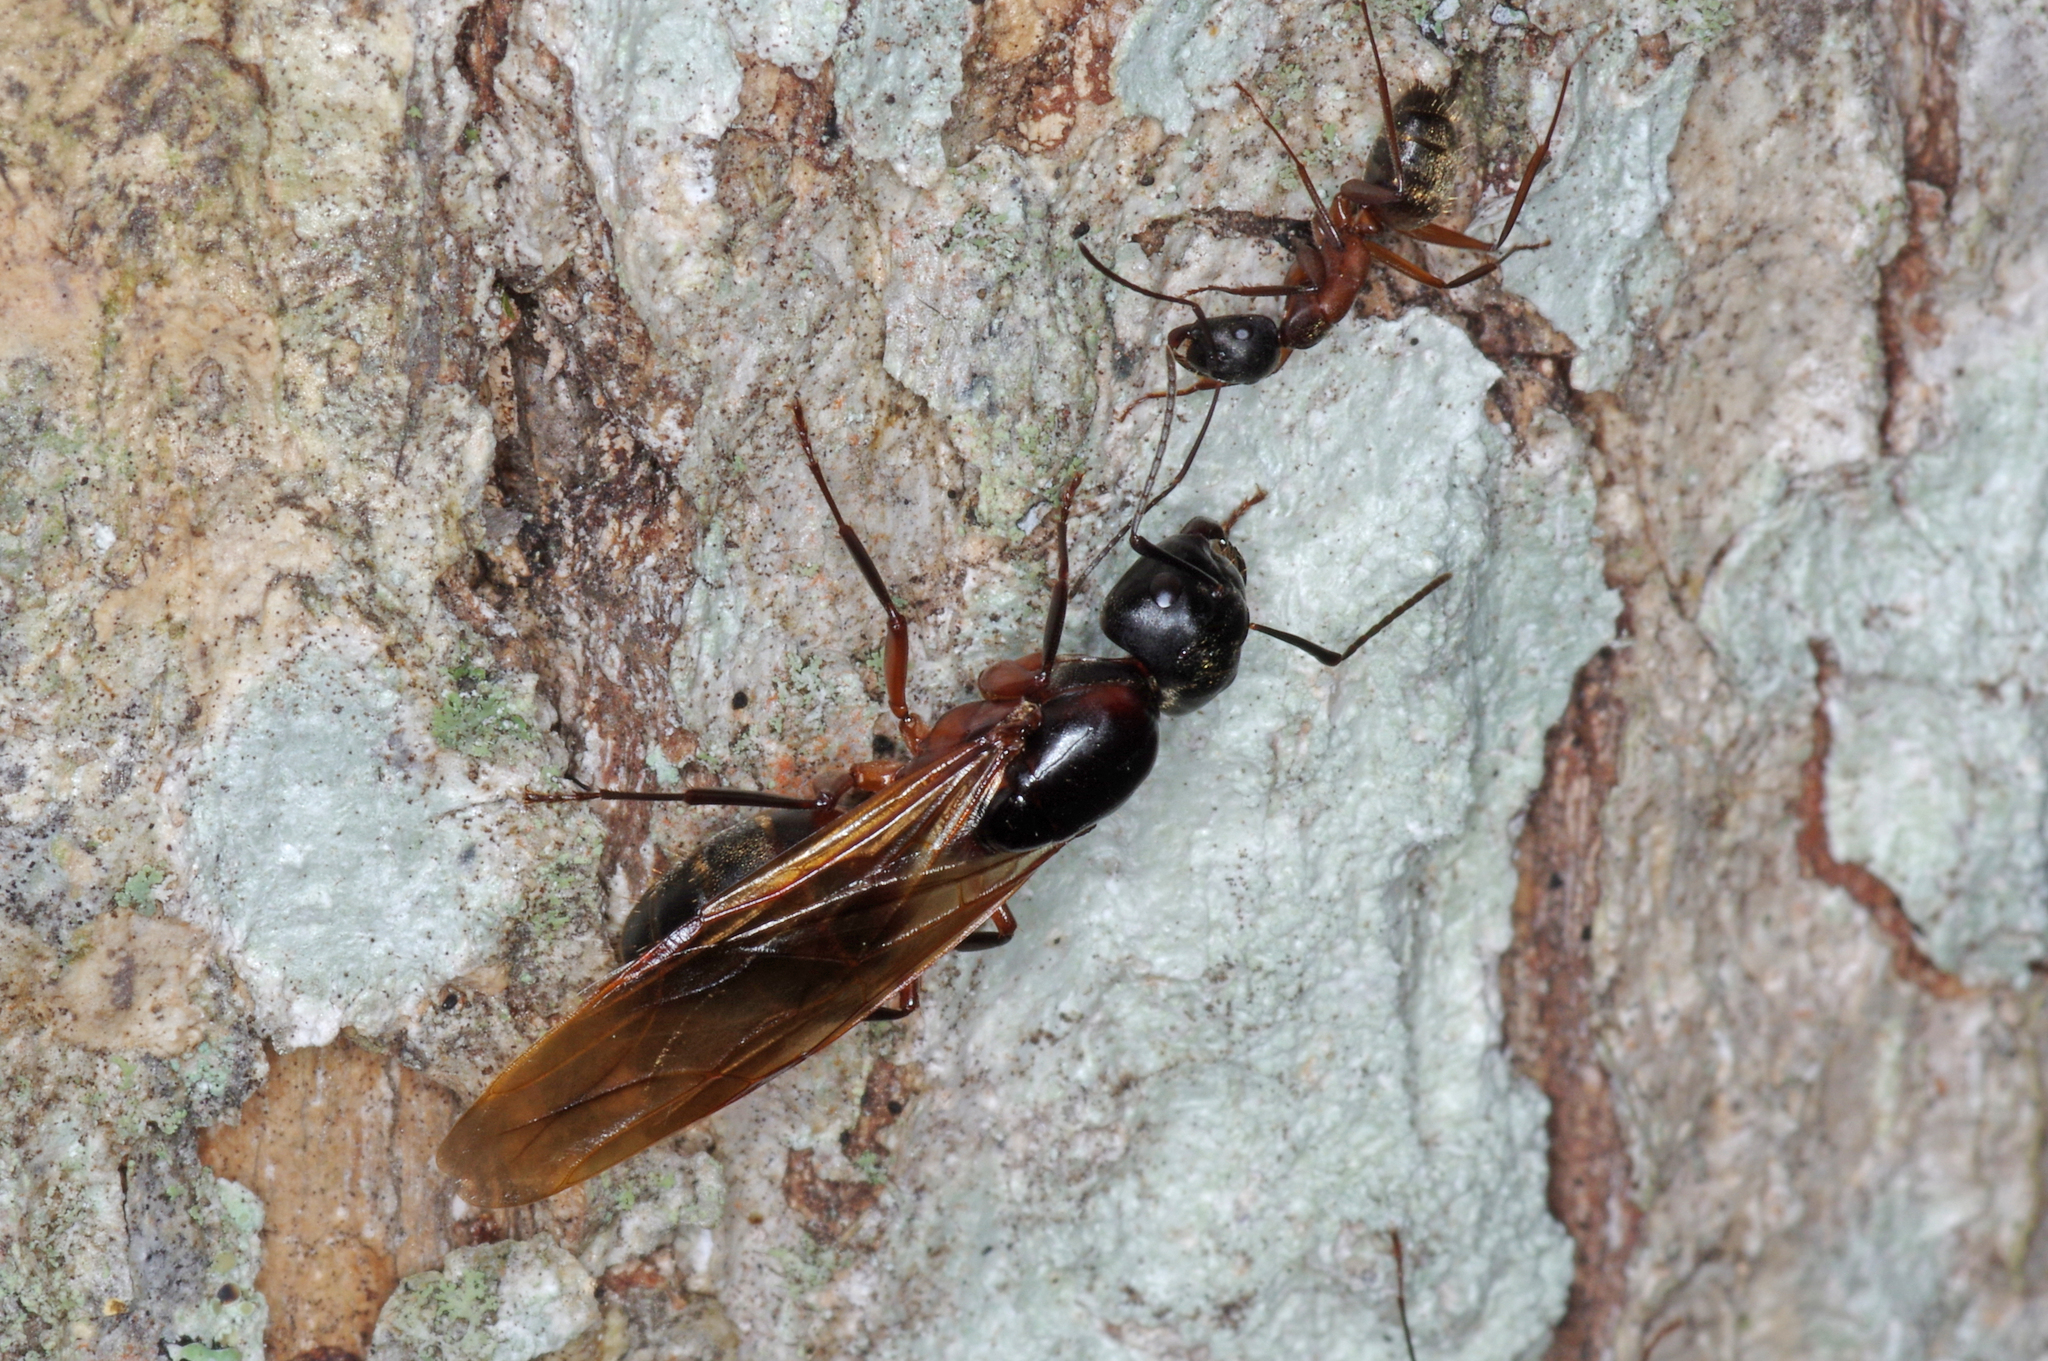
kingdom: Animalia
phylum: Arthropoda
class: Insecta
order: Hymenoptera
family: Formicidae
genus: Camponotus
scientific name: Camponotus chromaiodes
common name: Red carpenter ant
